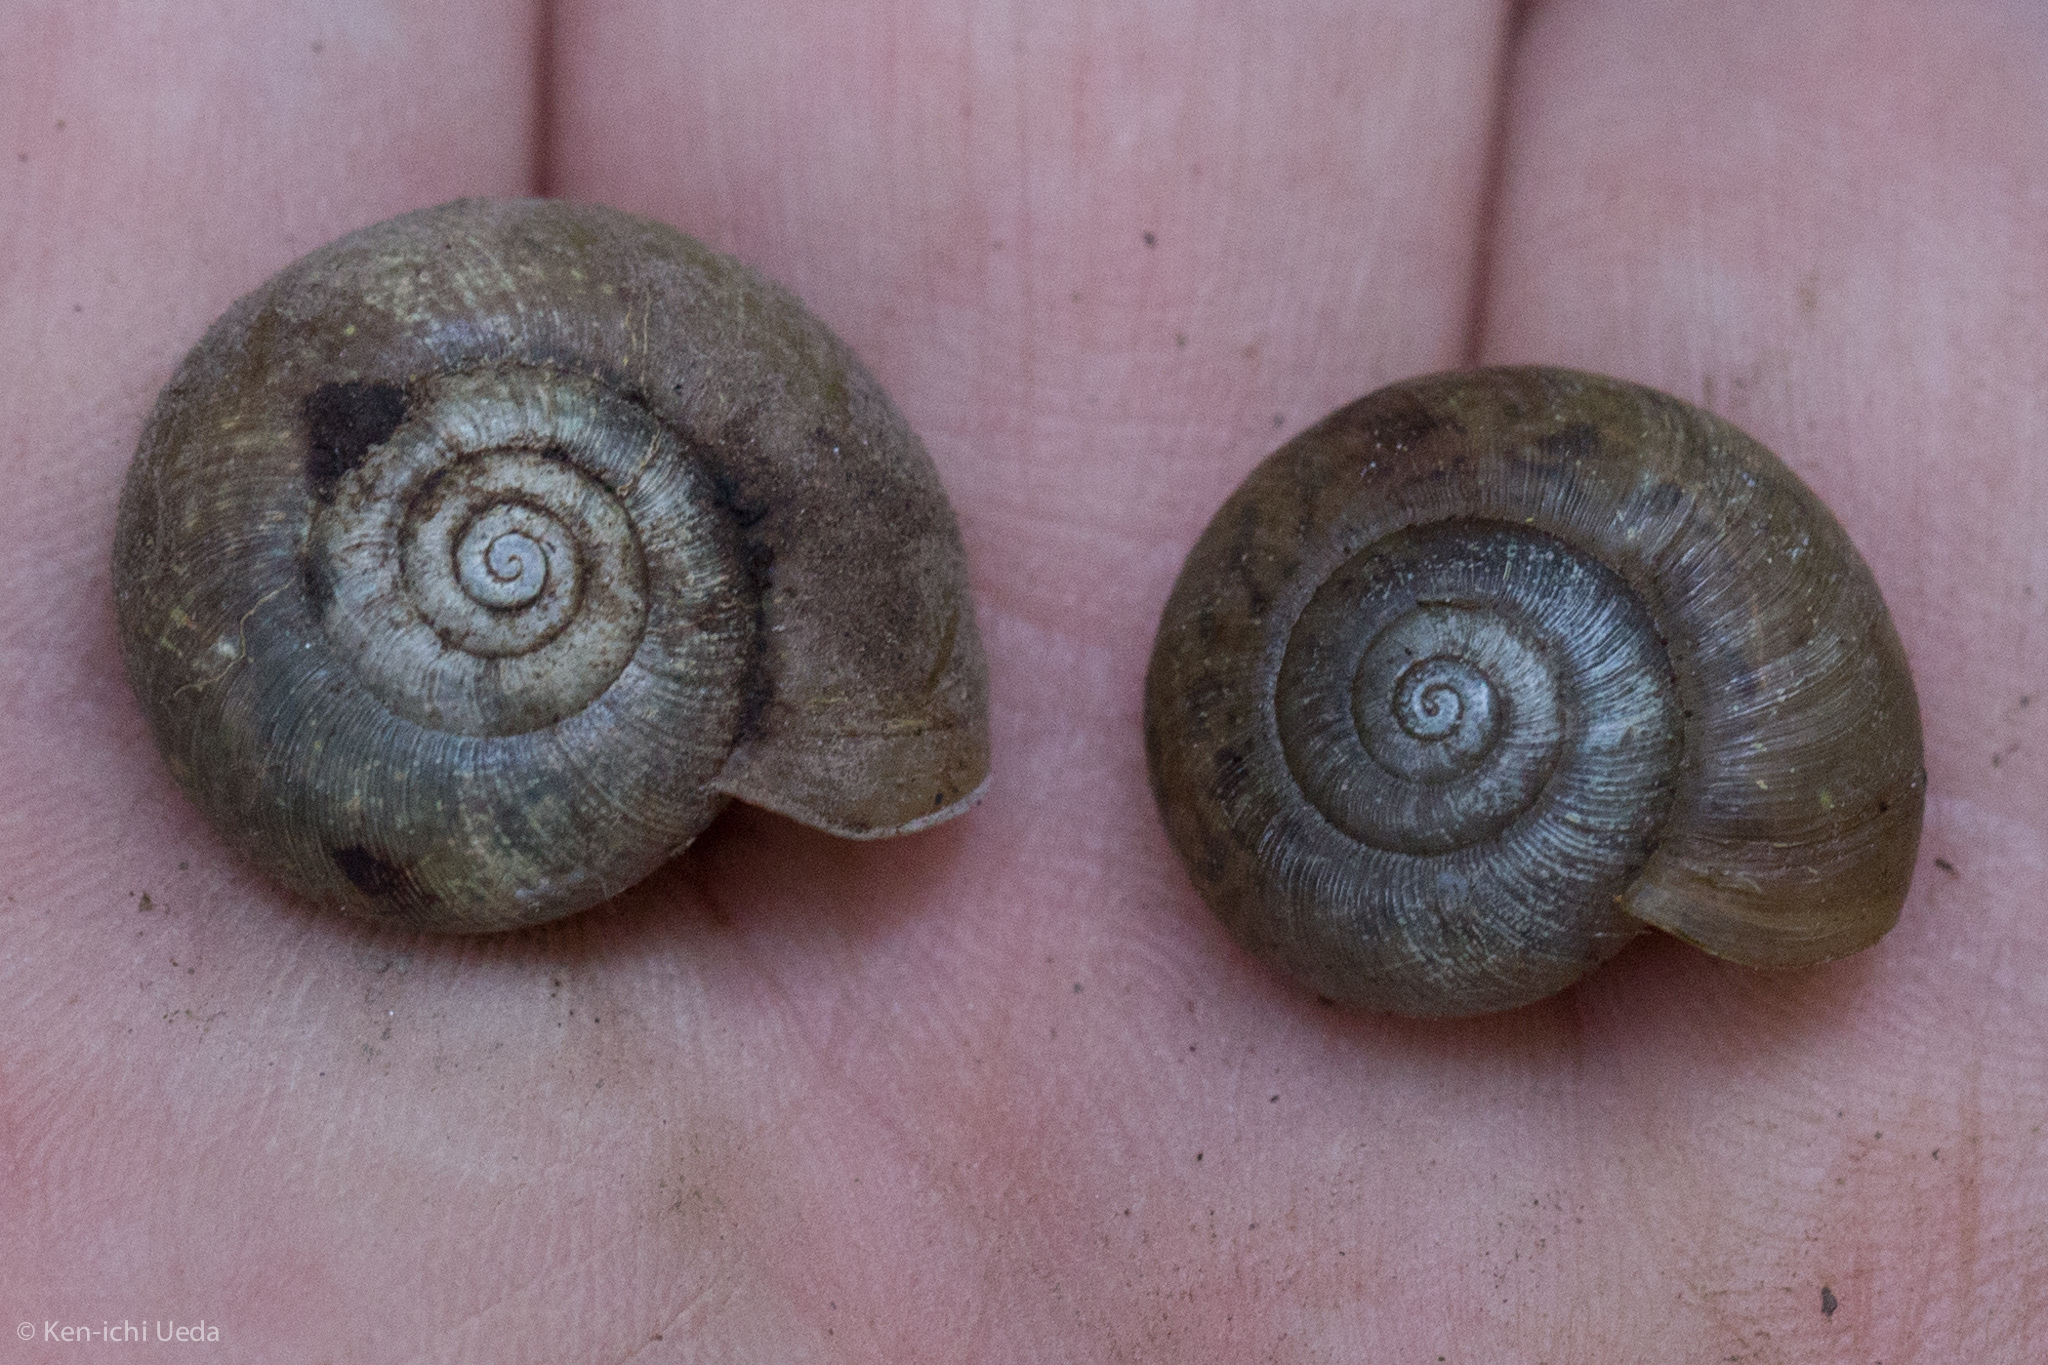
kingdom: Animalia
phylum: Mollusca
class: Gastropoda
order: Stylommatophora
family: Haplotrematidae
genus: Haplotrema
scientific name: Haplotrema minimum
